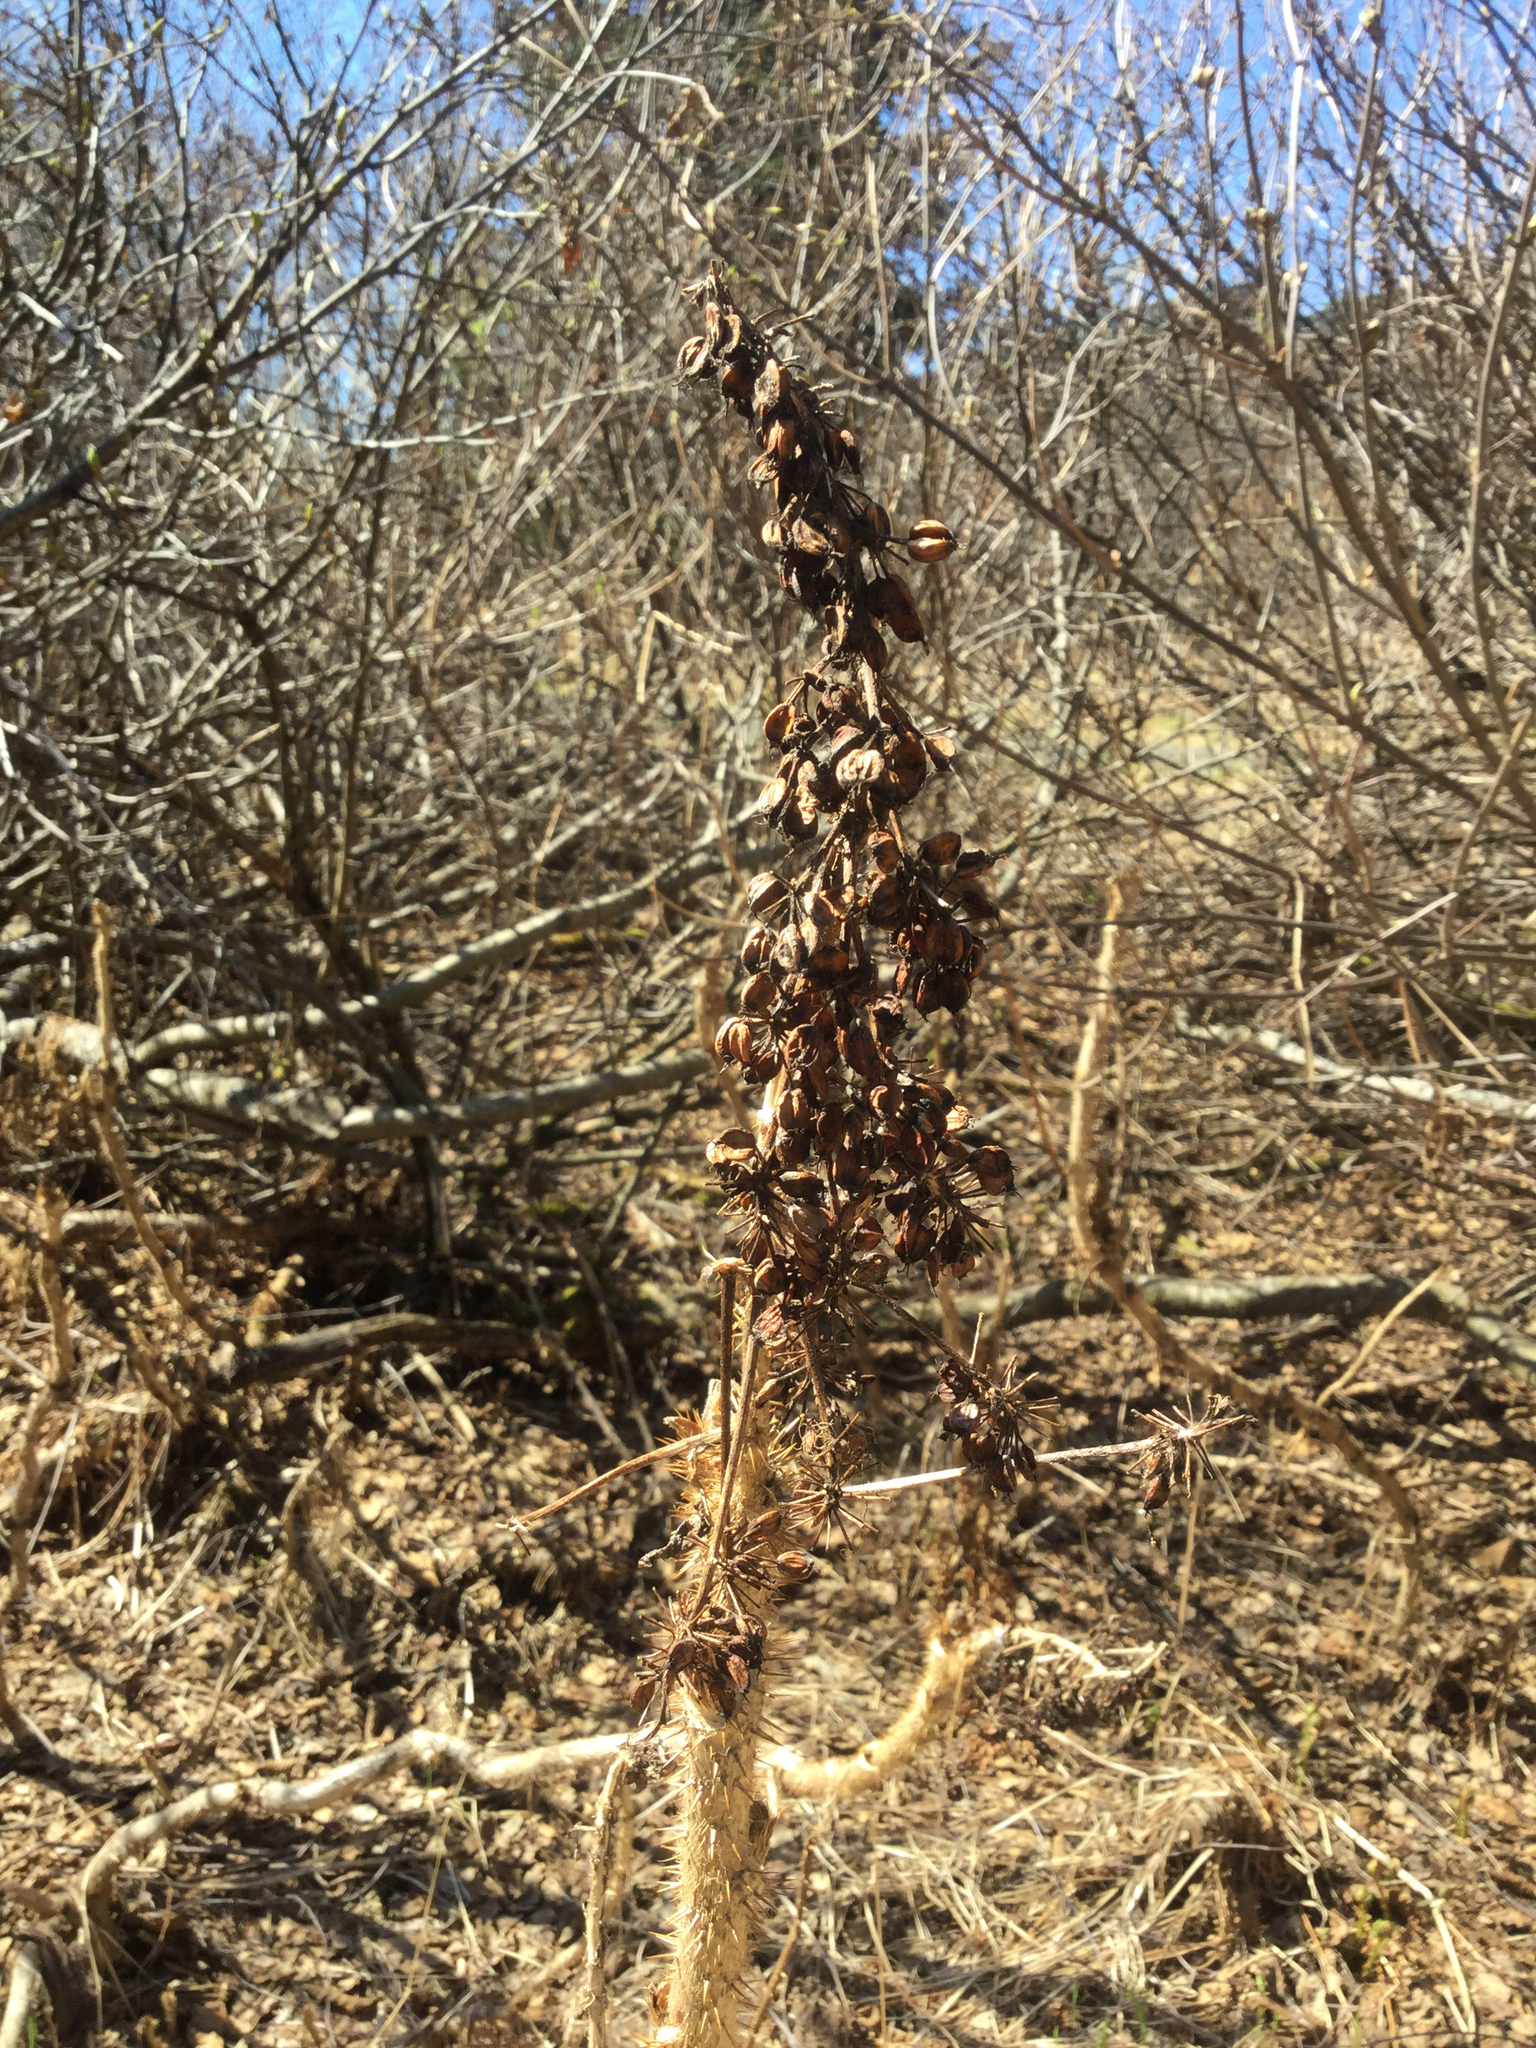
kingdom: Plantae
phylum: Tracheophyta
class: Magnoliopsida
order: Apiales
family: Araliaceae
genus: Oplopanax
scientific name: Oplopanax horridus
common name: Devil's walking-stick
